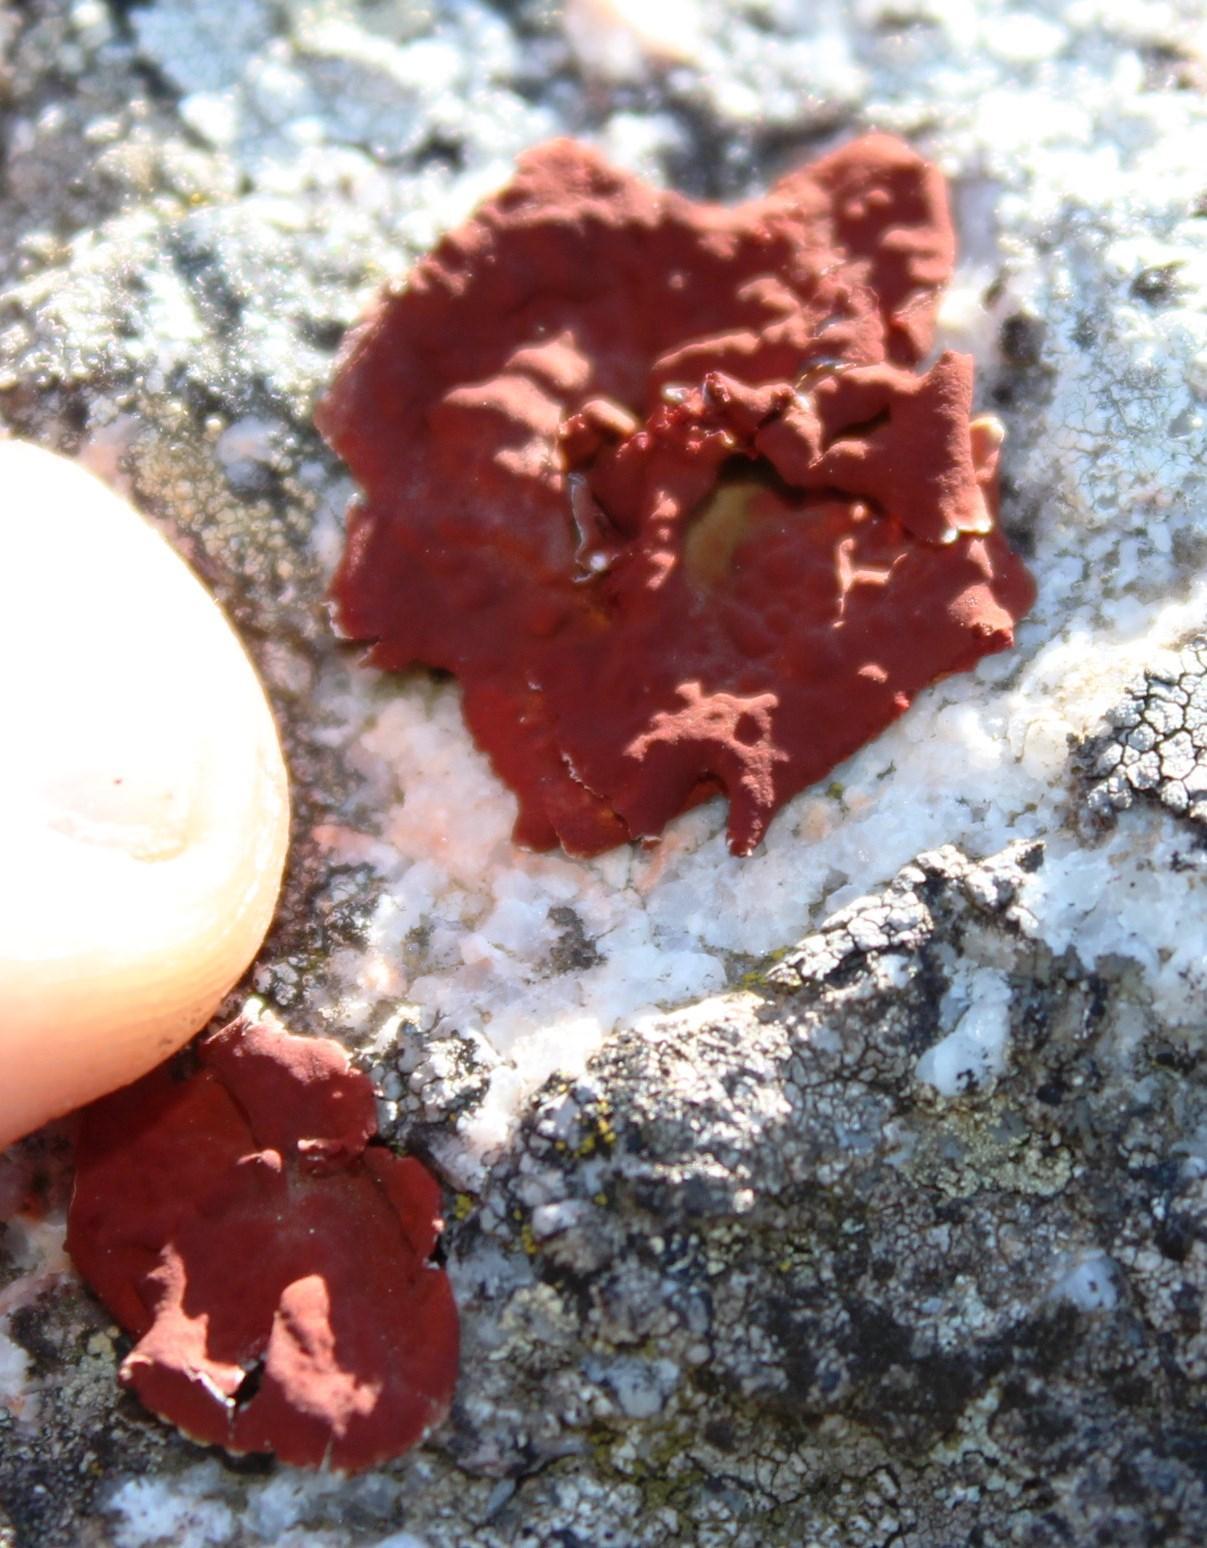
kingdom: Fungi
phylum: Ascomycota
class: Lecanoromycetes
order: Umbilicariales
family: Umbilicariaceae
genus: Lasallia
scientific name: Lasallia rubiginosa
